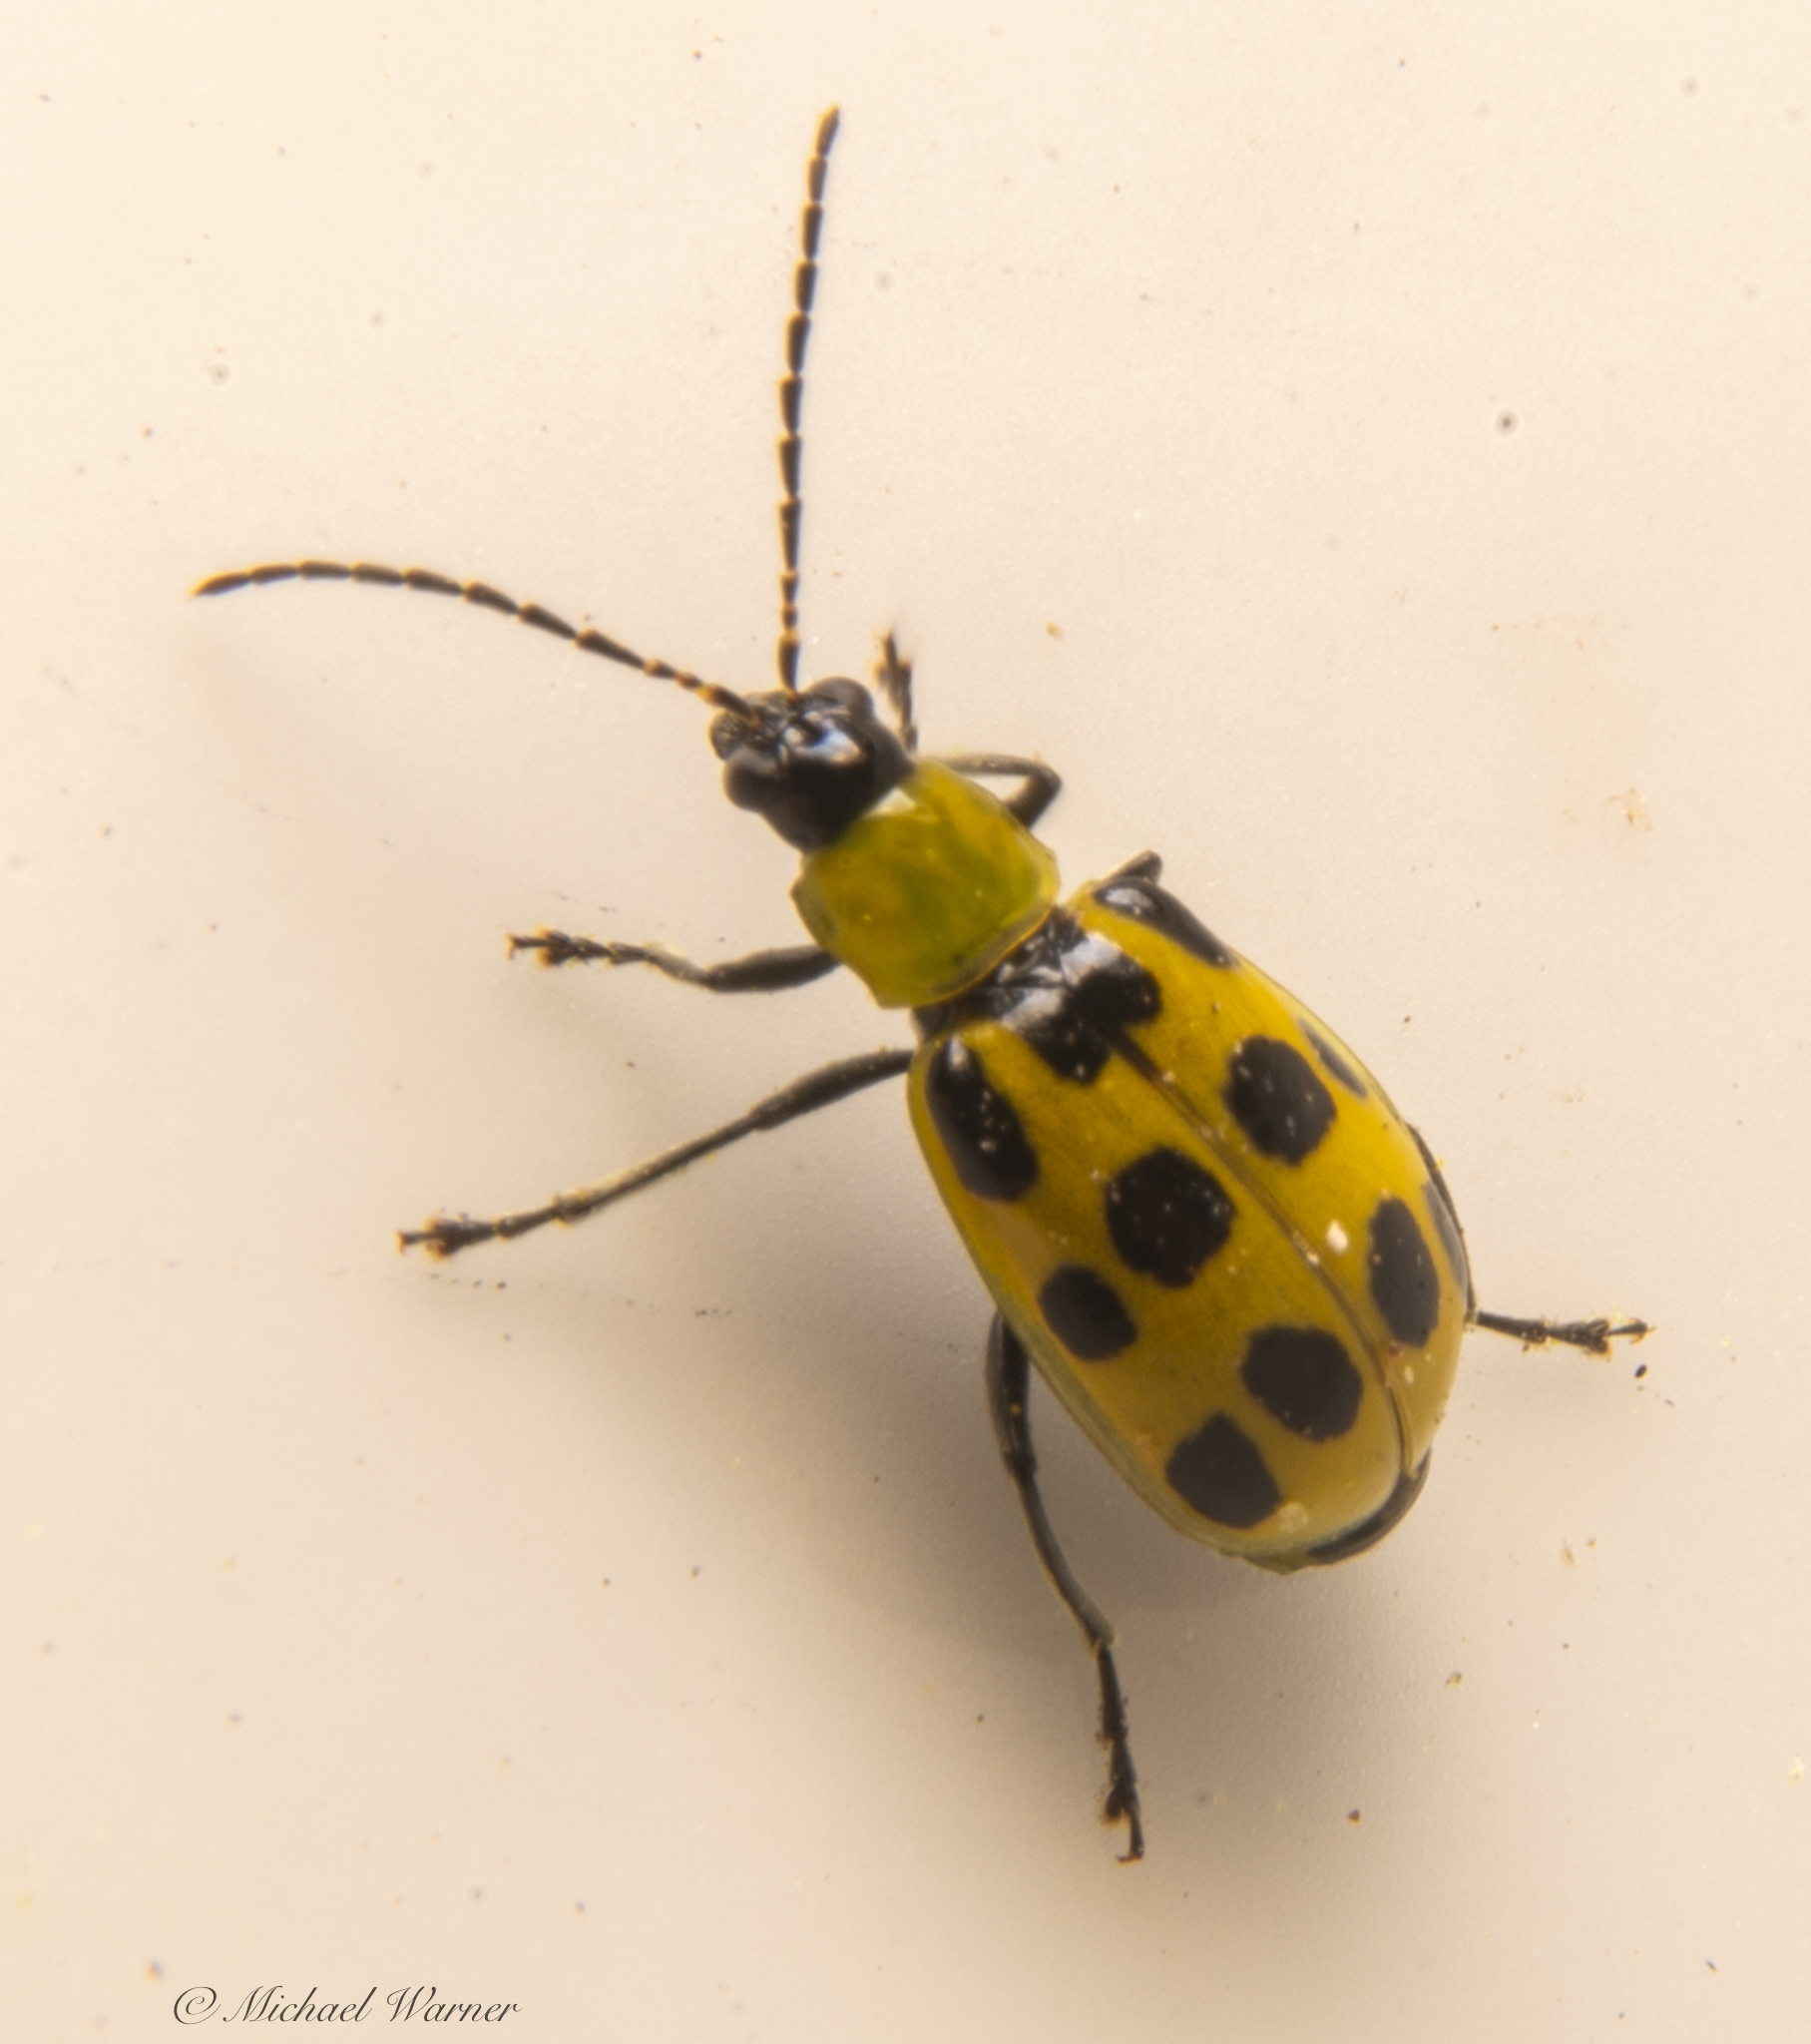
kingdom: Animalia
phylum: Arthropoda
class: Insecta
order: Coleoptera
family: Chrysomelidae
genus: Diabrotica
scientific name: Diabrotica undecimpunctata
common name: Spotted cucumber beetle
